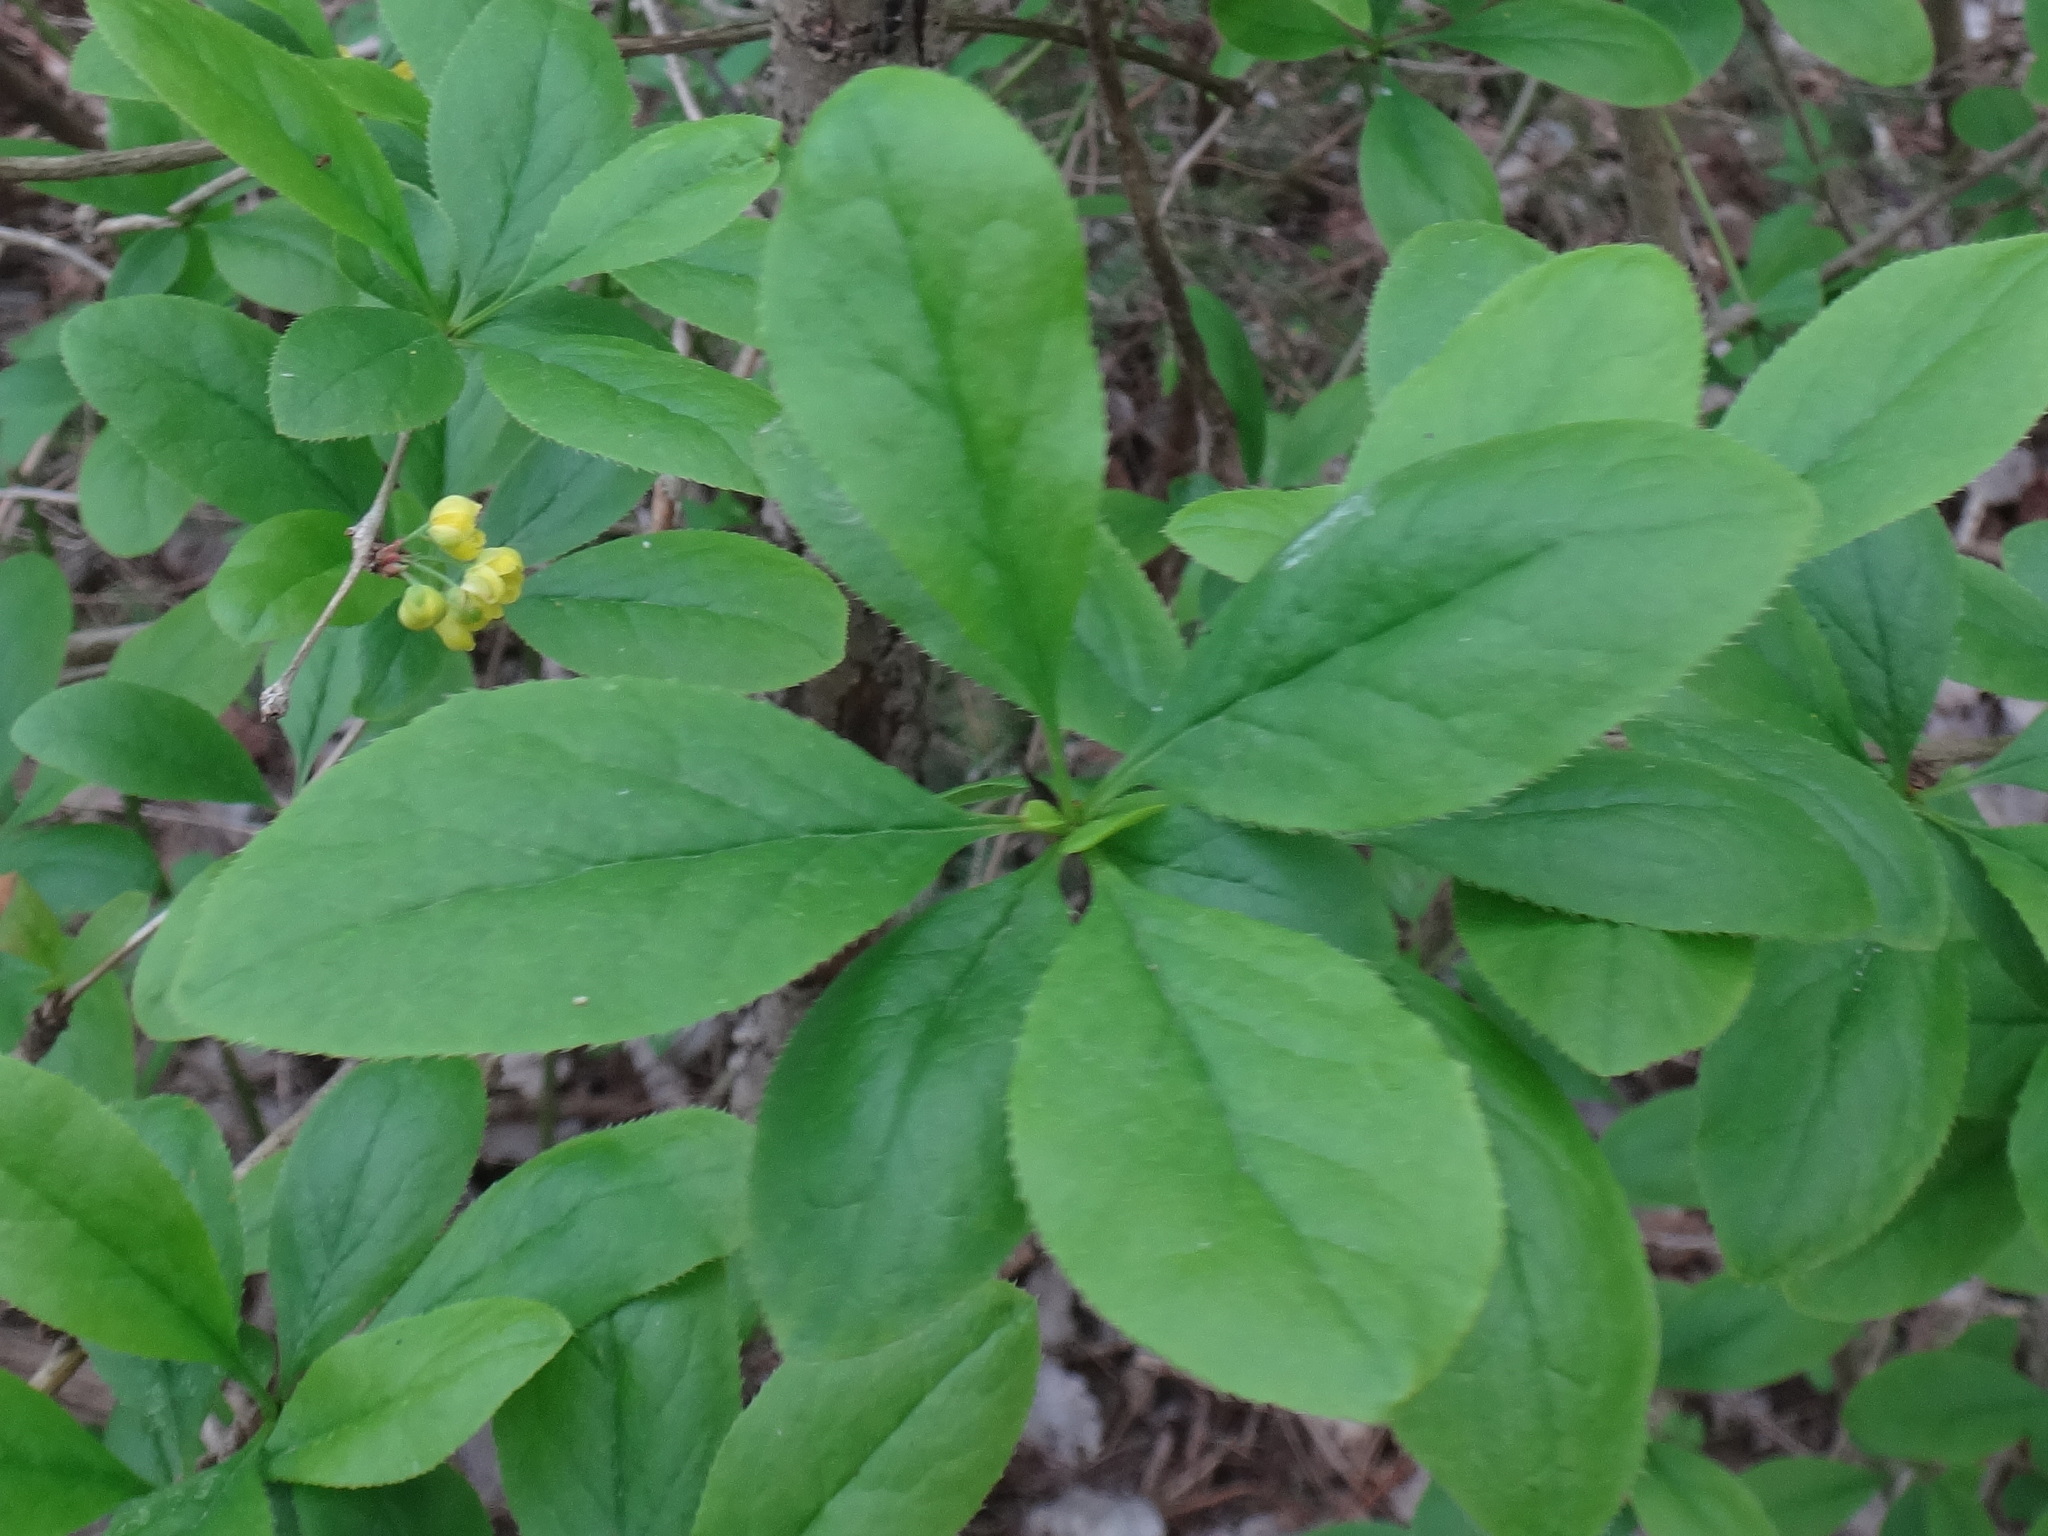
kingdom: Plantae
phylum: Tracheophyta
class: Magnoliopsida
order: Ranunculales
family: Berberidaceae
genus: Berberis
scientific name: Berberis vulgaris
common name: Barberry
